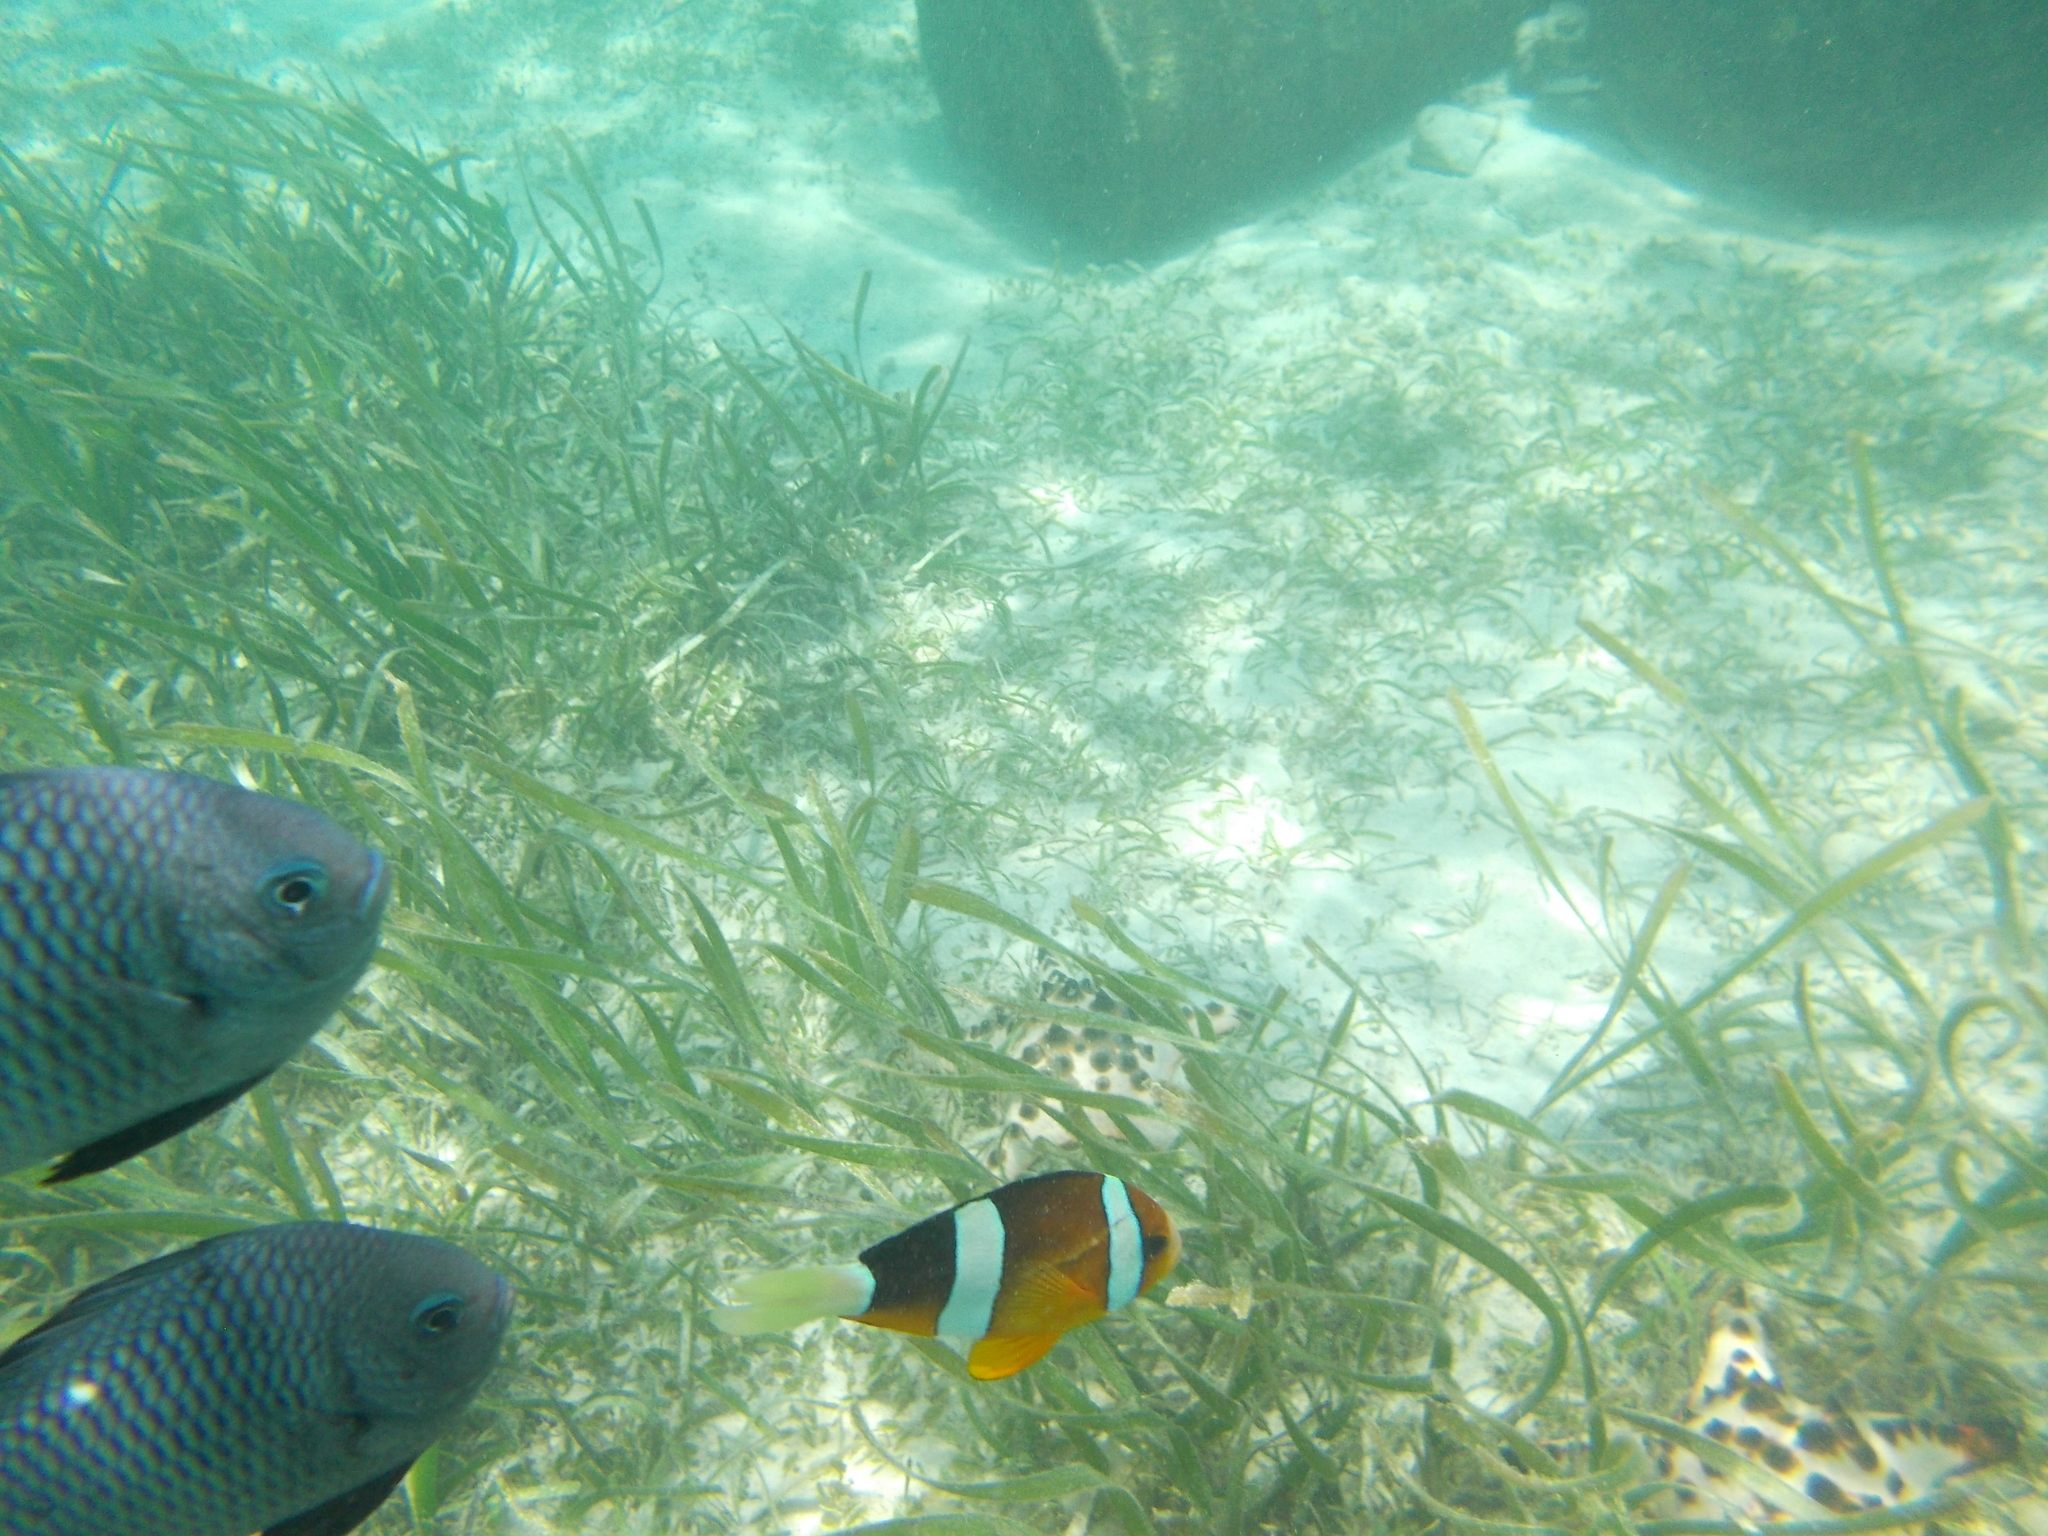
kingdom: Animalia
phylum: Chordata
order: Perciformes
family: Pomacentridae
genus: Dascyllus
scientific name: Dascyllus trimaculatus
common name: Threespot dascyllus
